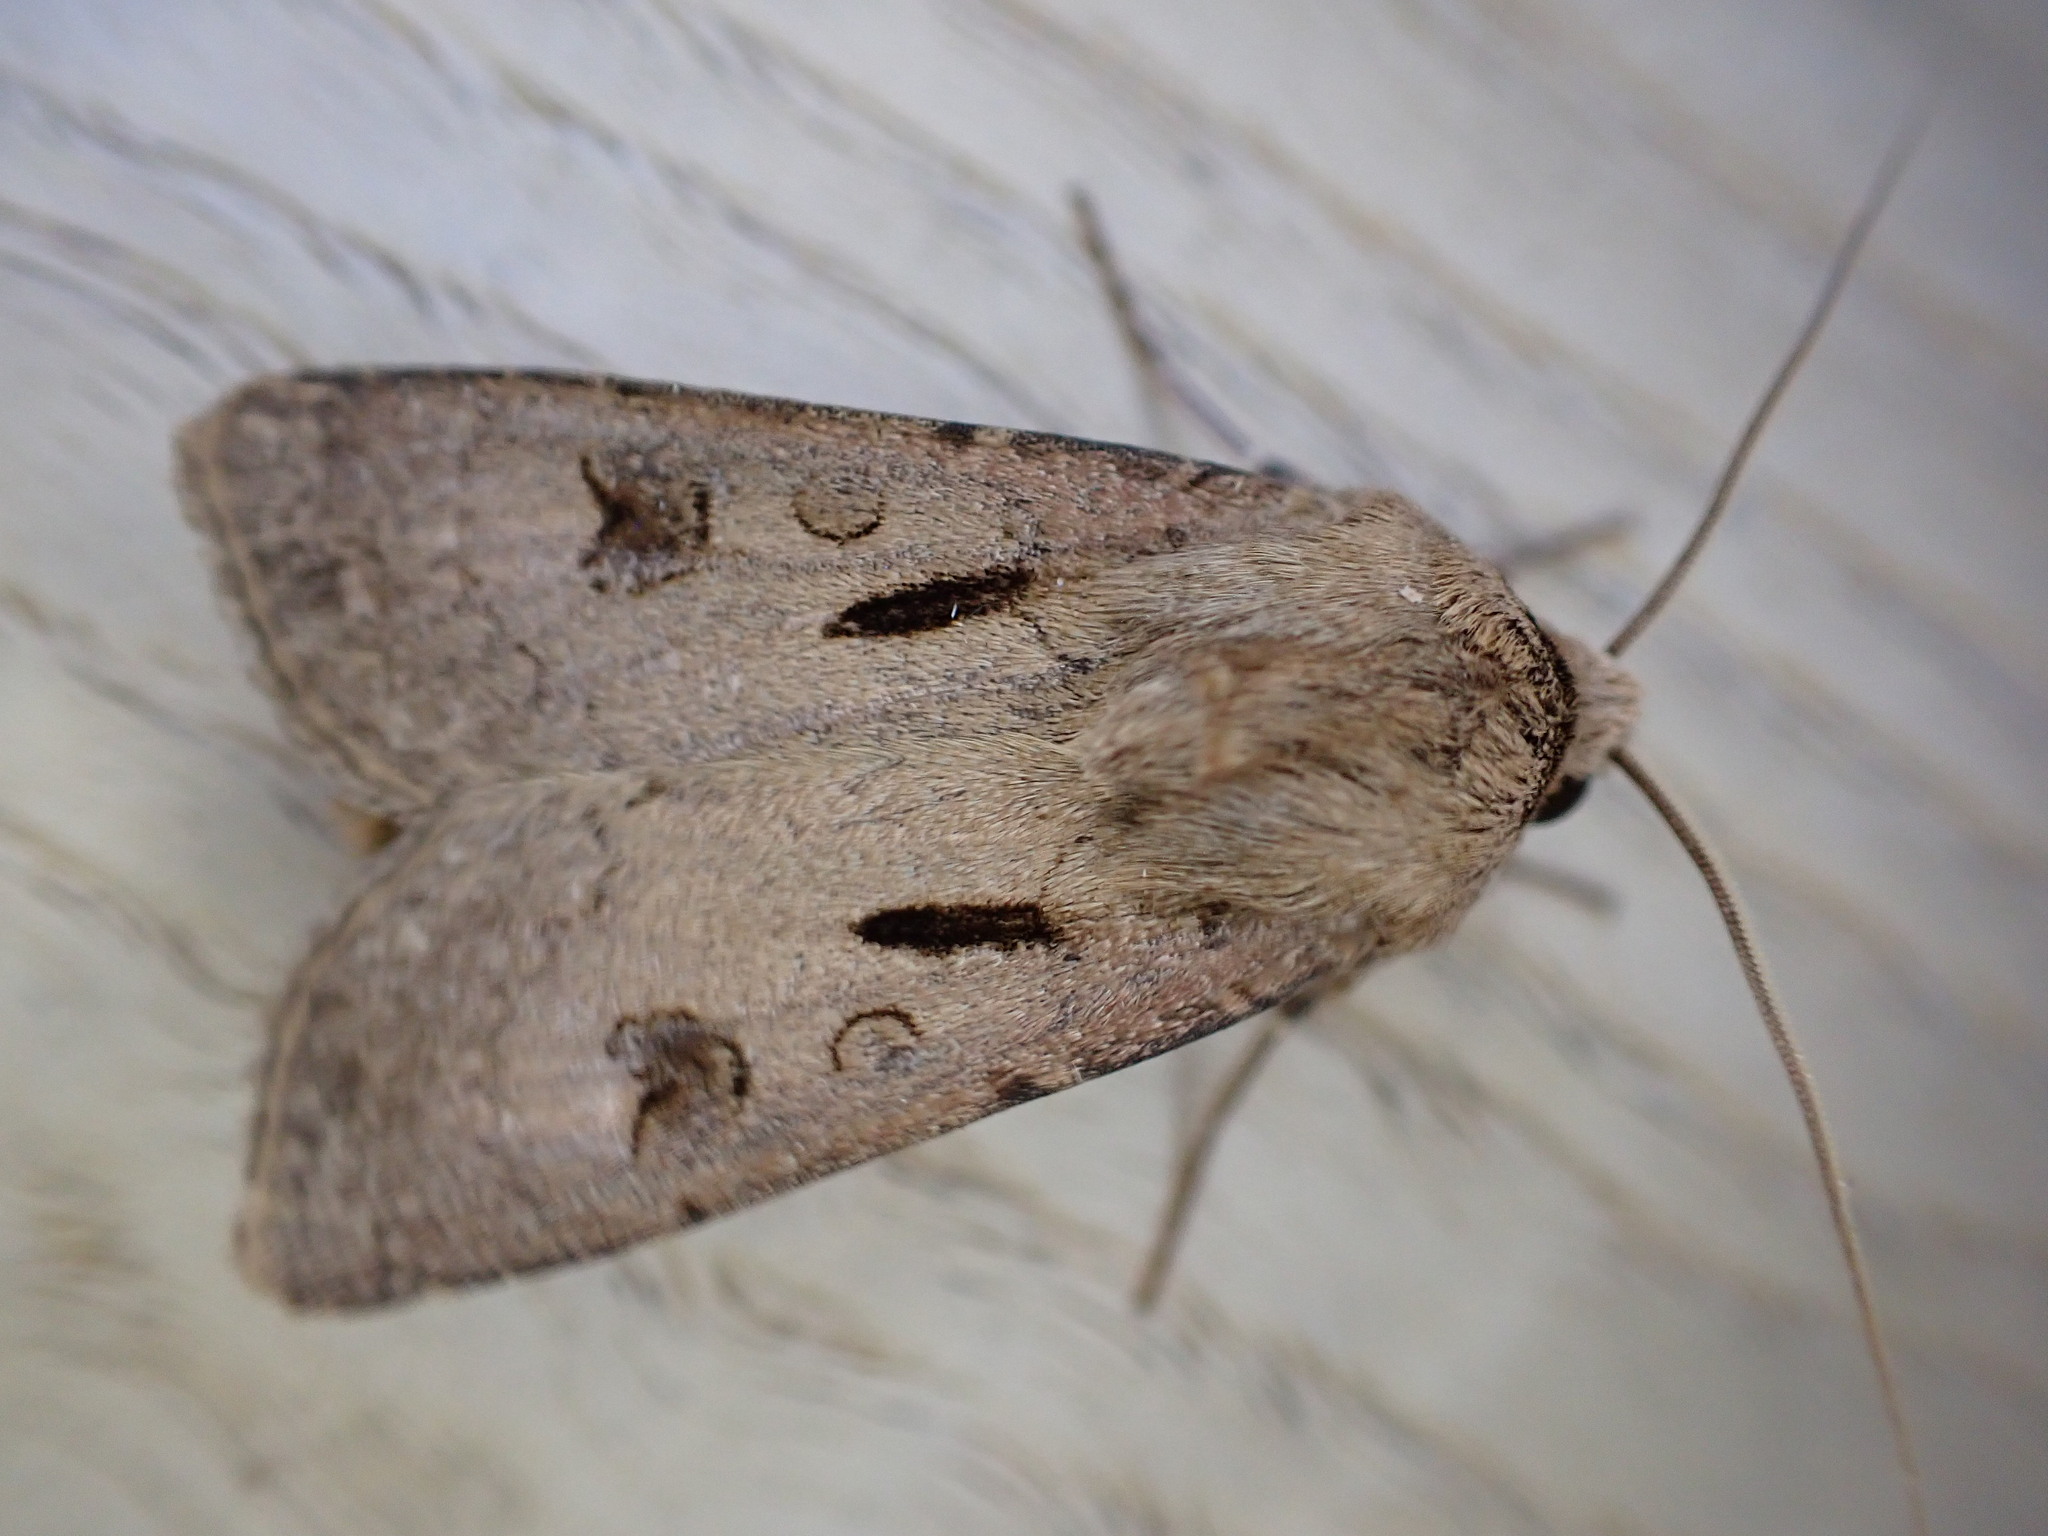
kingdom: Animalia
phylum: Arthropoda
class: Insecta
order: Lepidoptera
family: Noctuidae
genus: Agrotis
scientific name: Agrotis exclamationis
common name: Heart and dart
